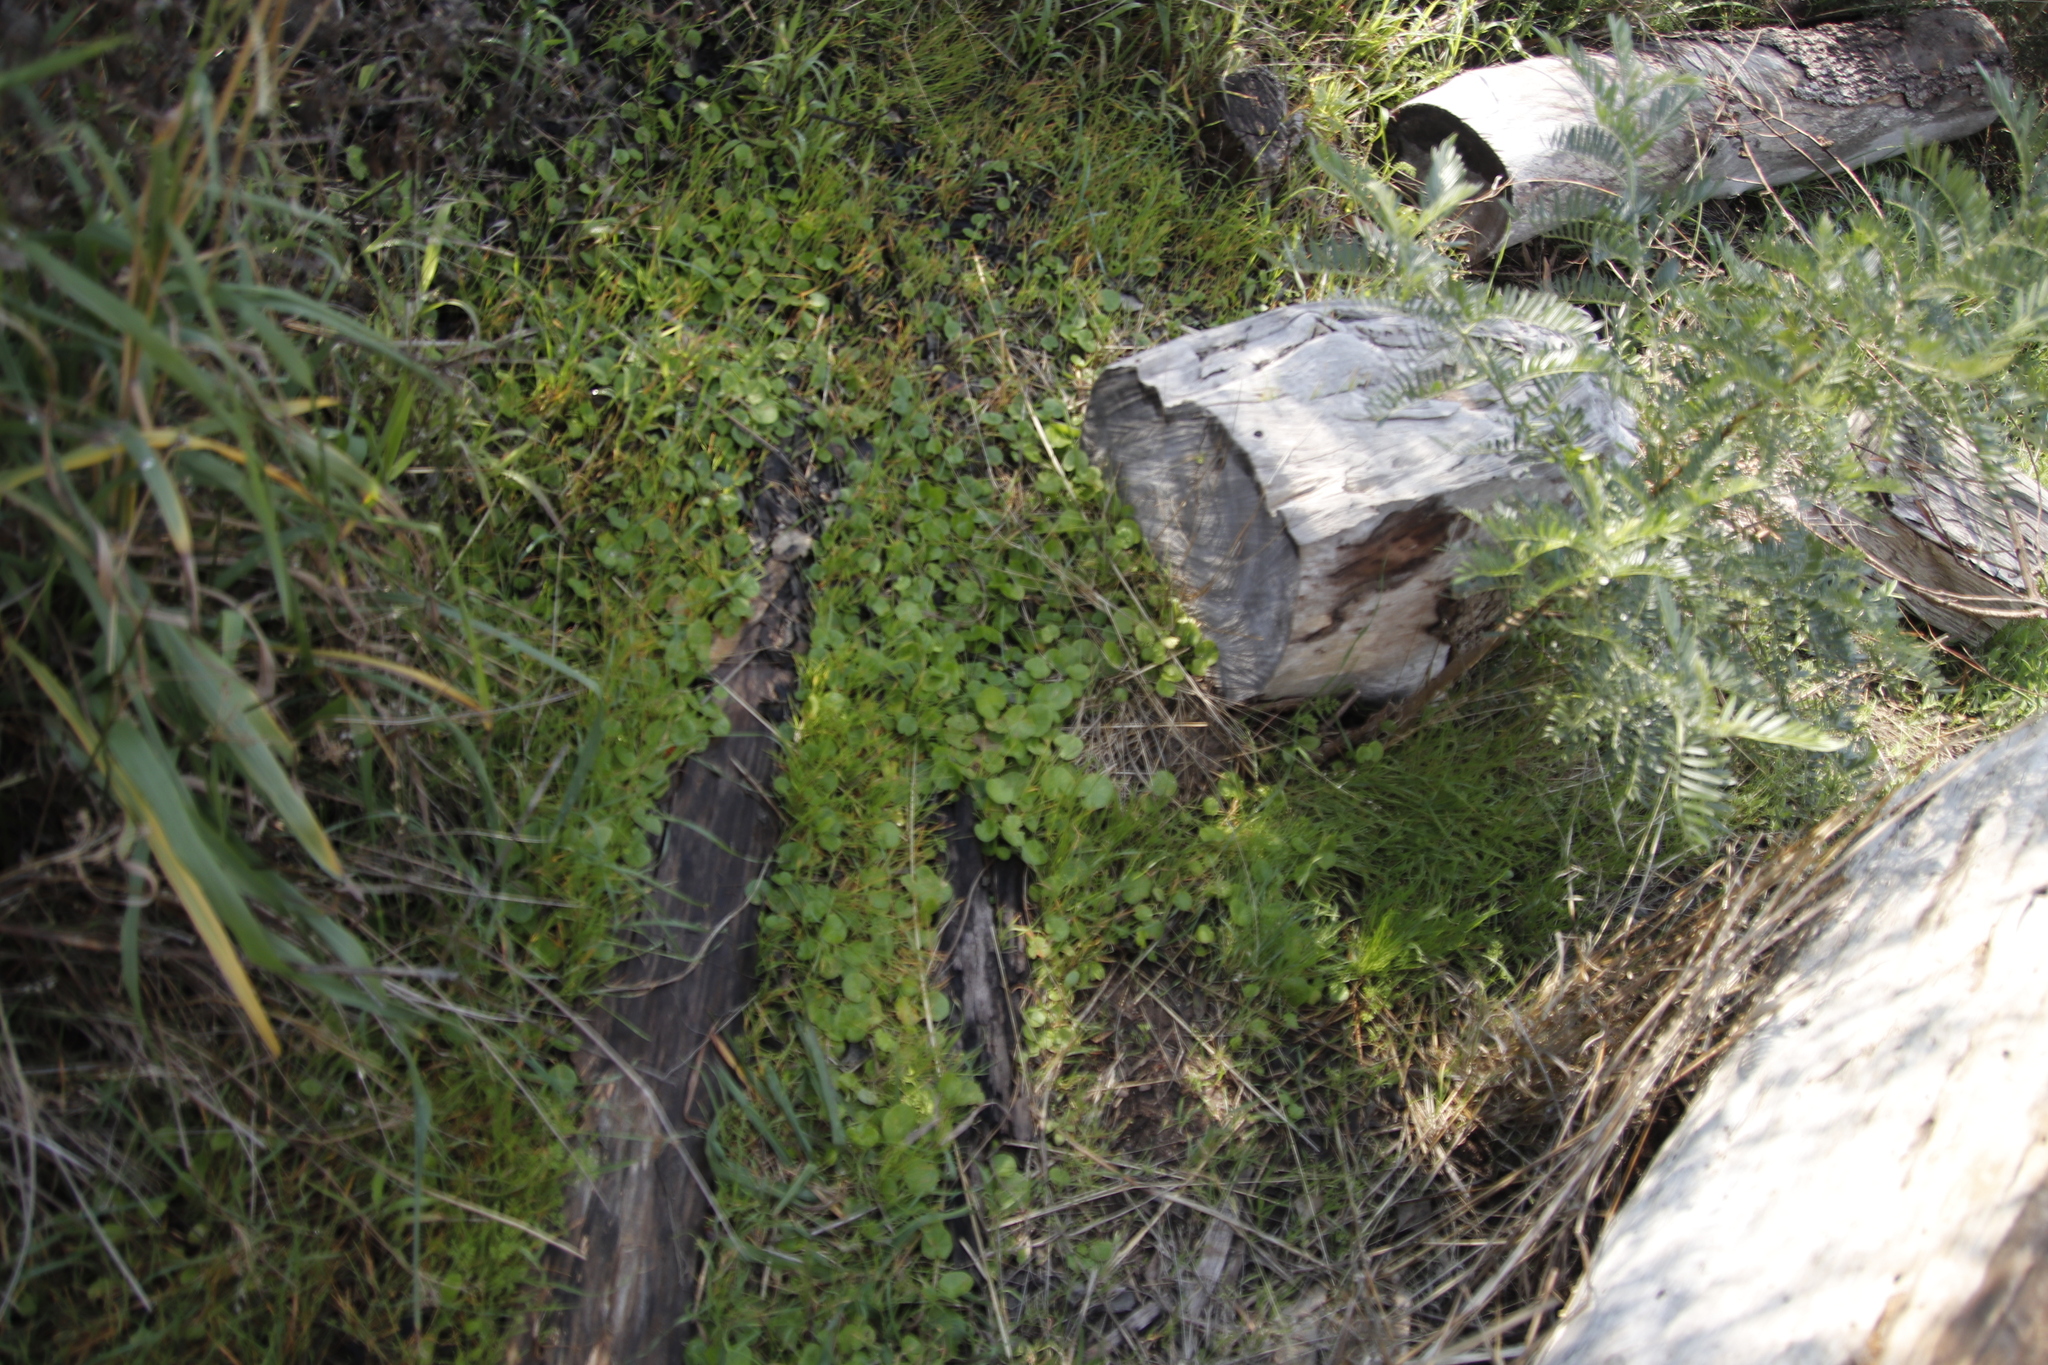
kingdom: Plantae
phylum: Tracheophyta
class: Magnoliopsida
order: Fabales
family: Fabaceae
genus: Virgilia
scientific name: Virgilia oroboides
